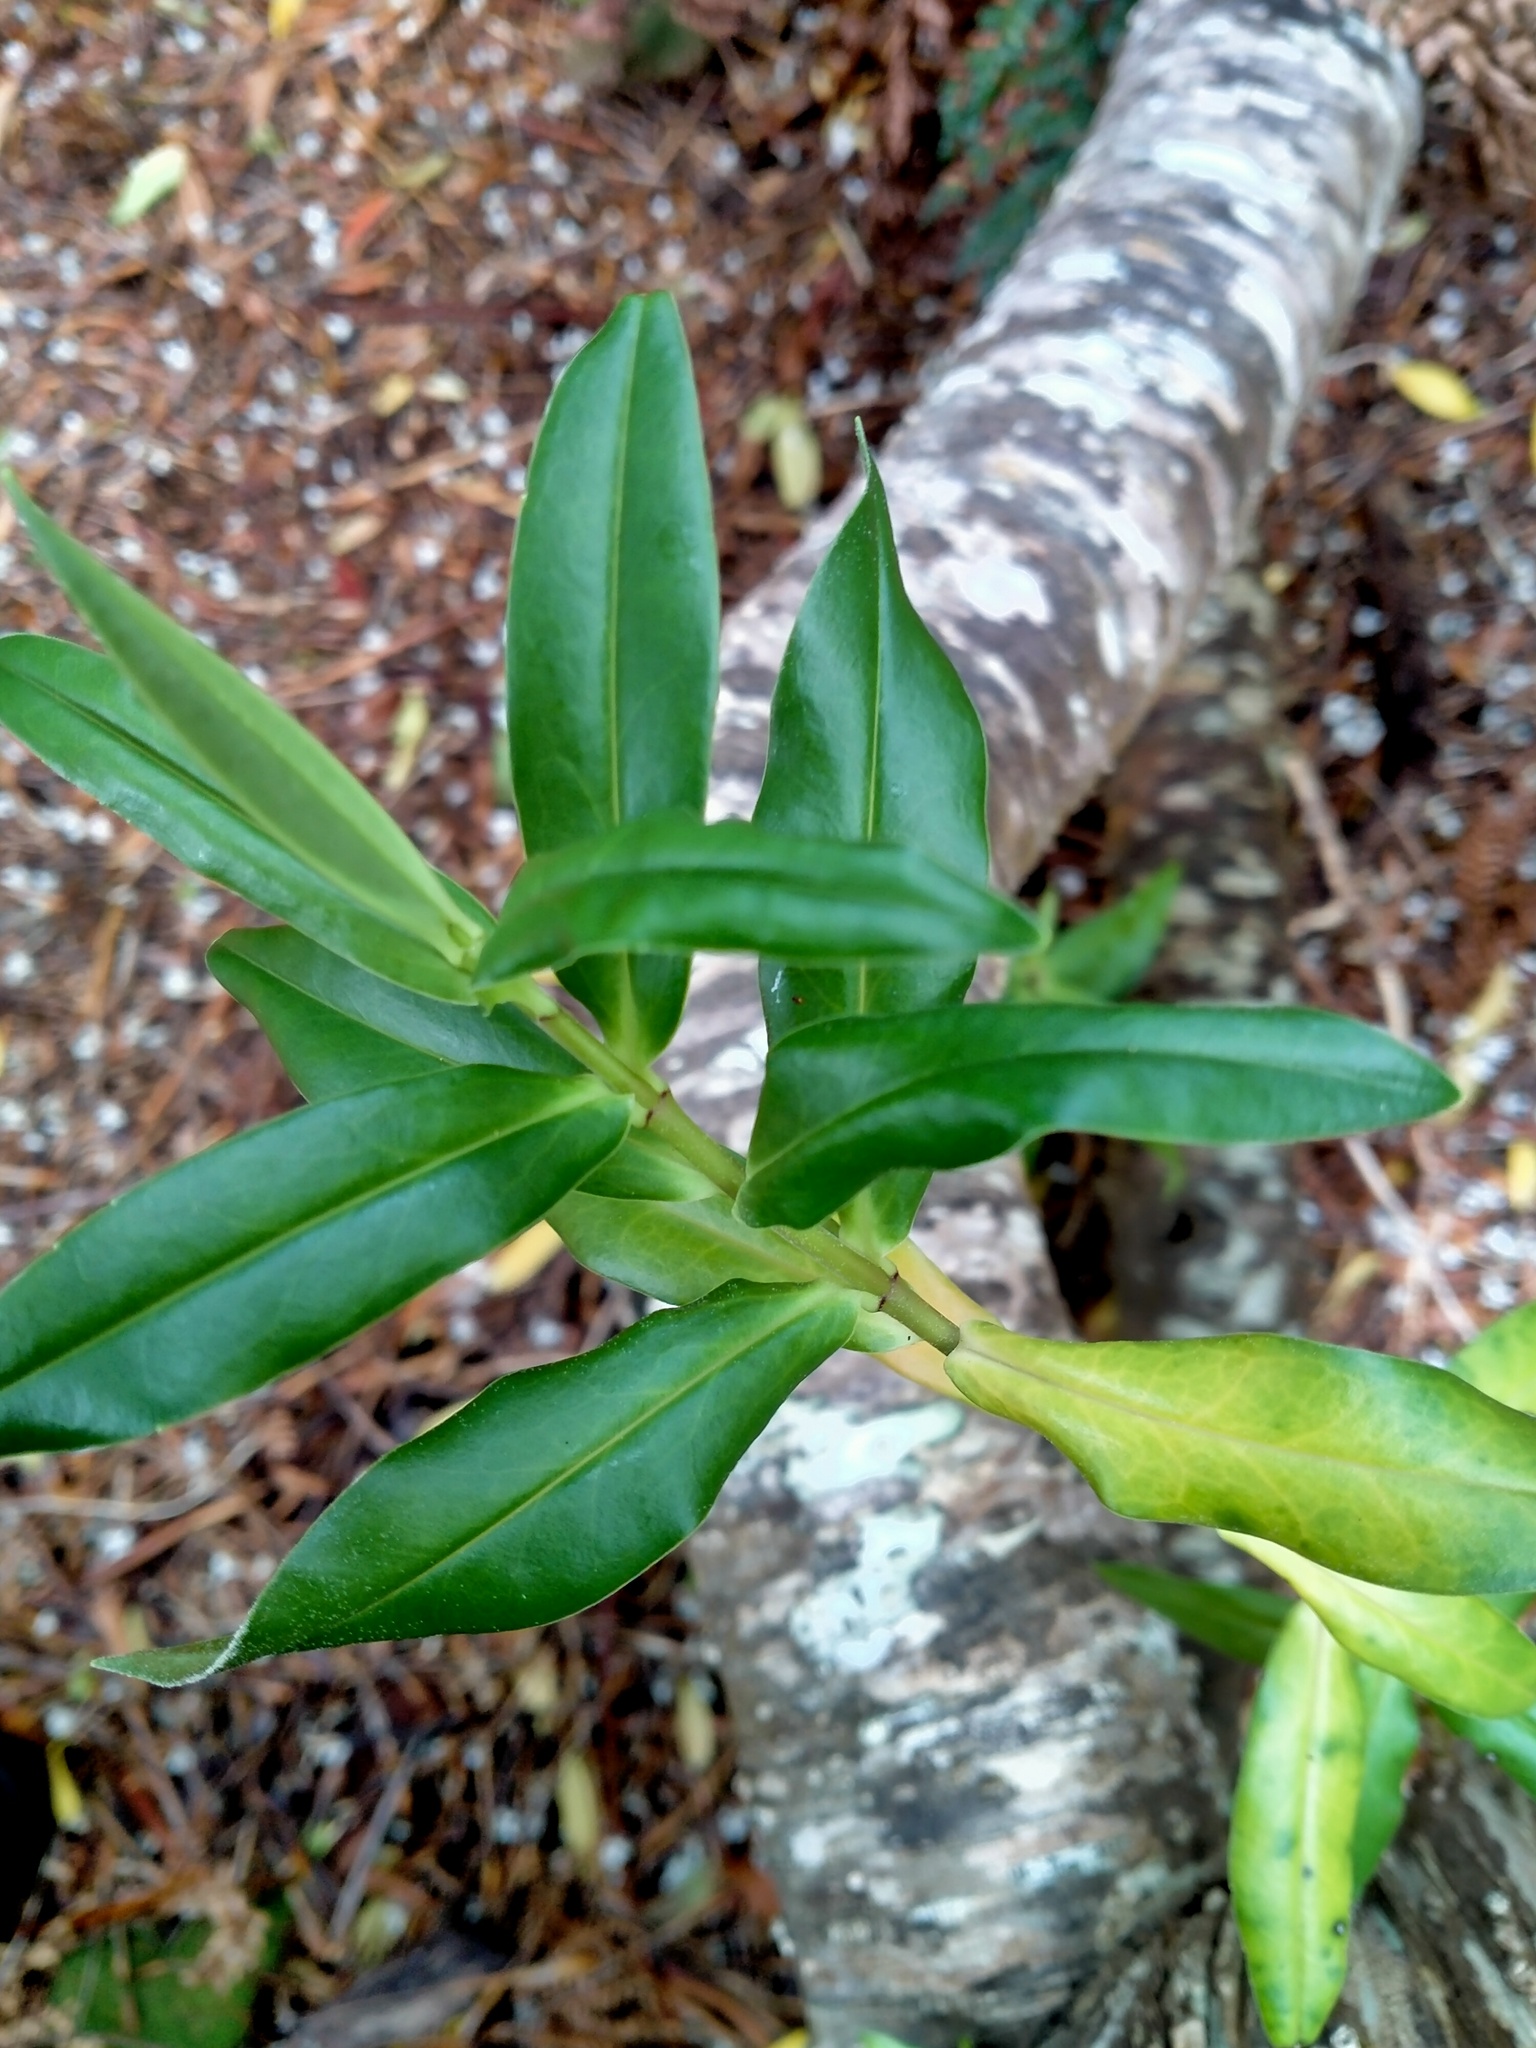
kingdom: Plantae
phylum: Tracheophyta
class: Magnoliopsida
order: Lamiales
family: Plantaginaceae
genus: Veronica
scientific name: Veronica salicifolia
